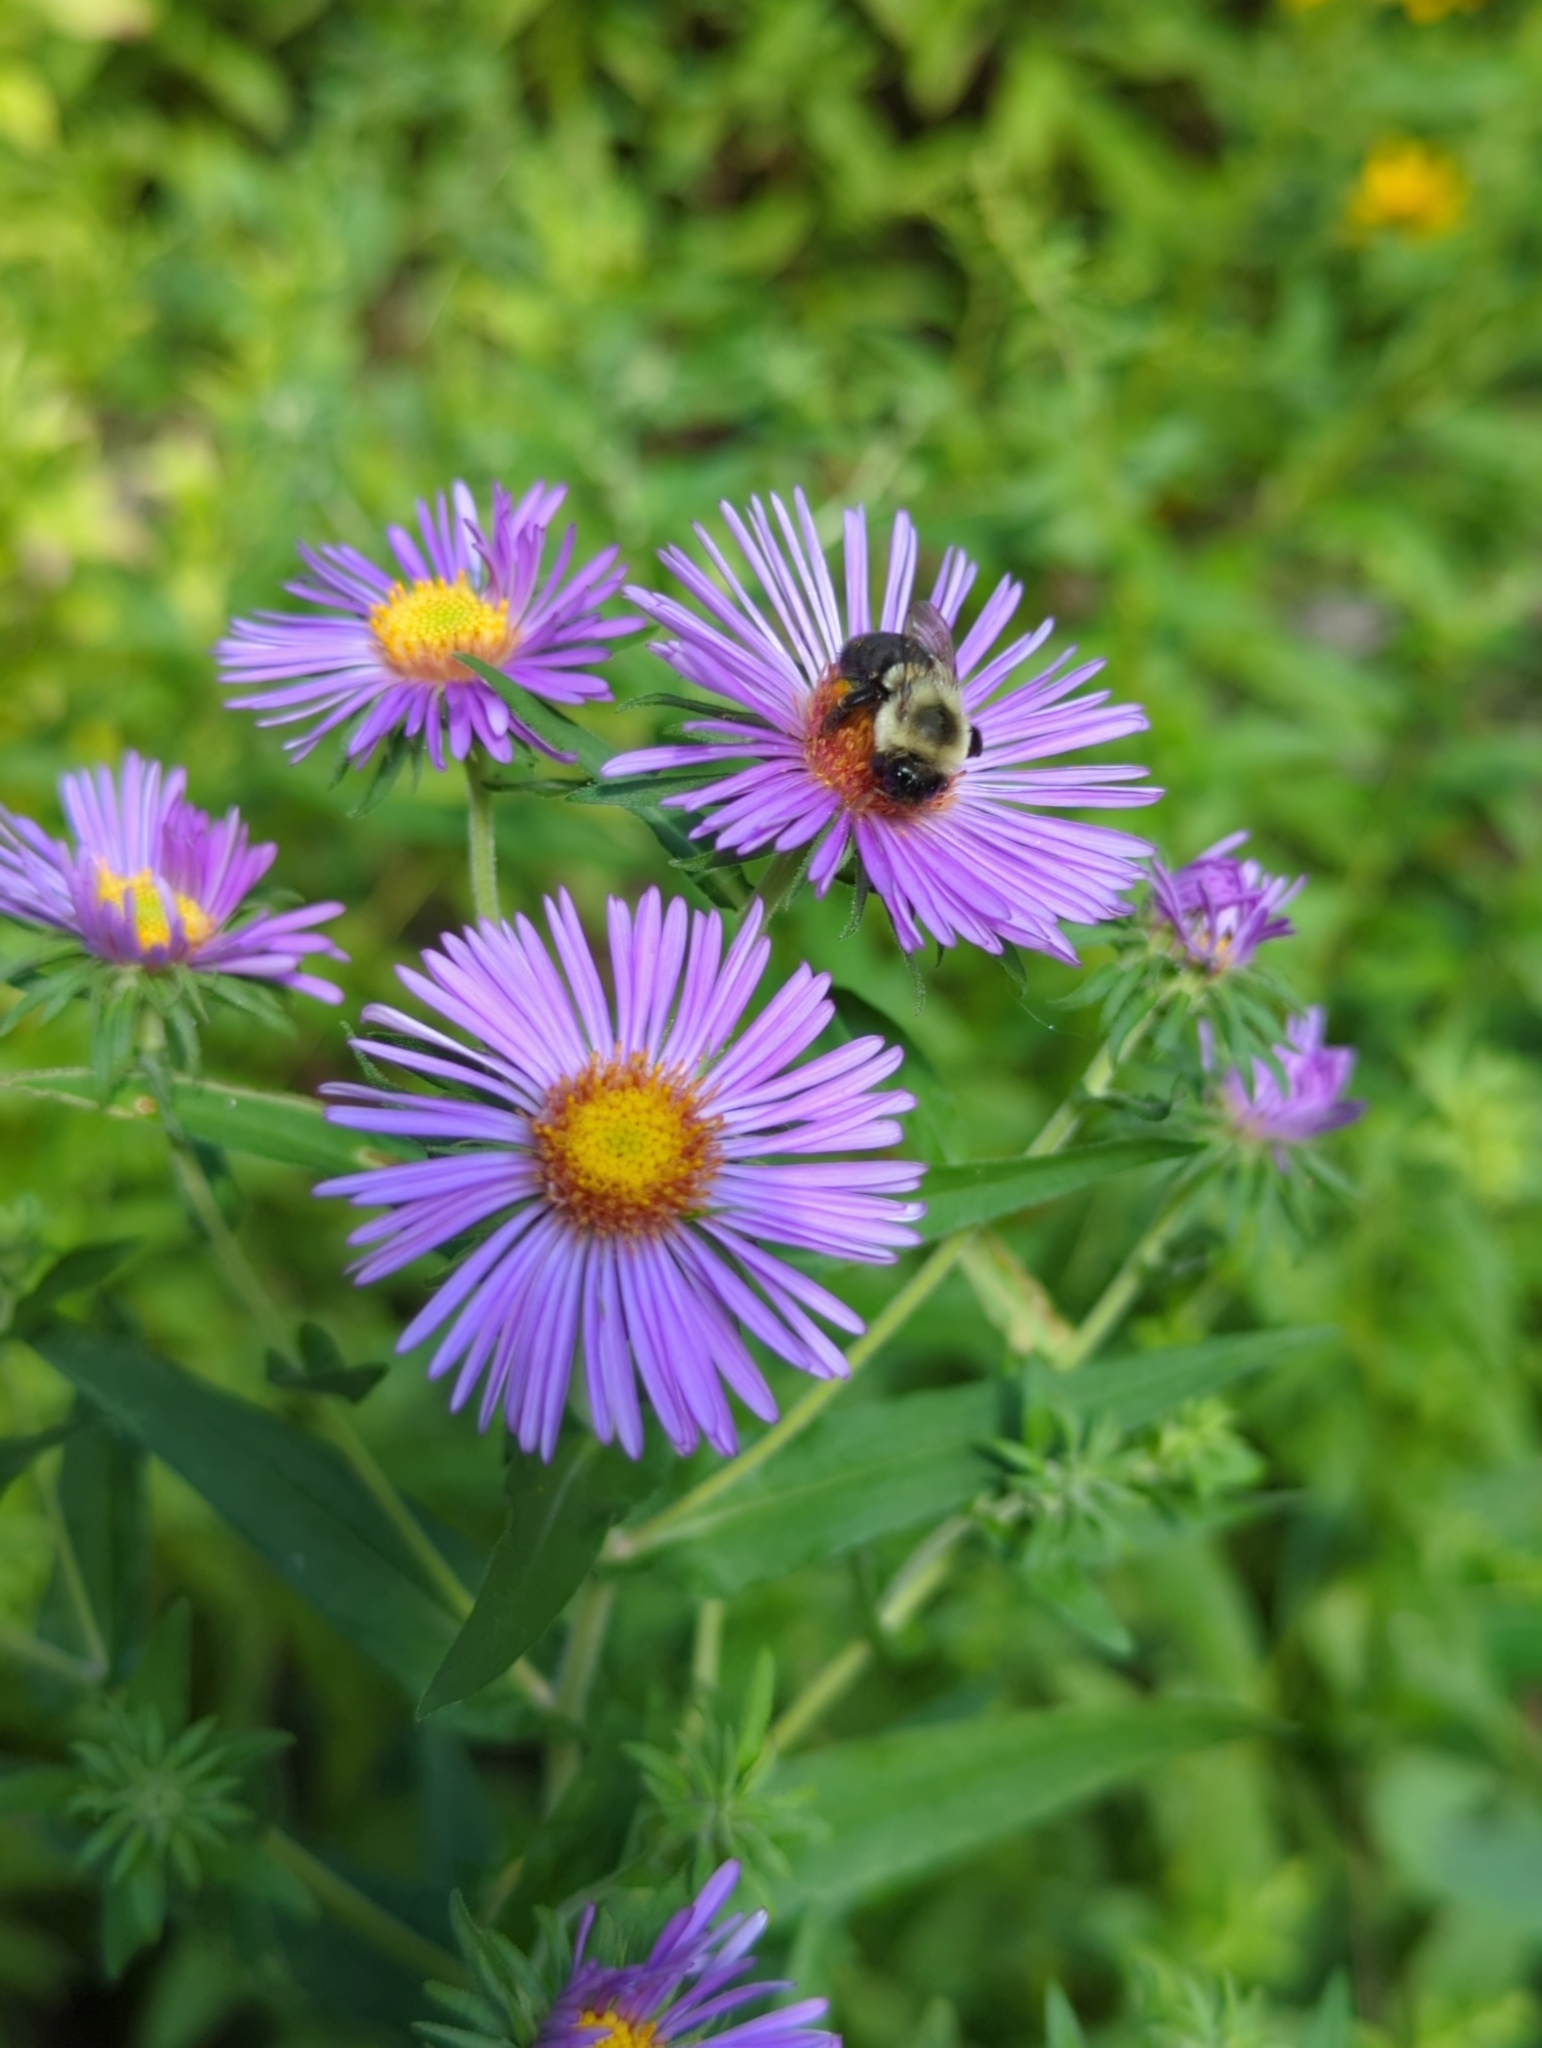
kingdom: Plantae
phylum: Tracheophyta
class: Magnoliopsida
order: Asterales
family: Asteraceae
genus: Symphyotrichum
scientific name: Symphyotrichum novae-angliae
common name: Michaelmas daisy
